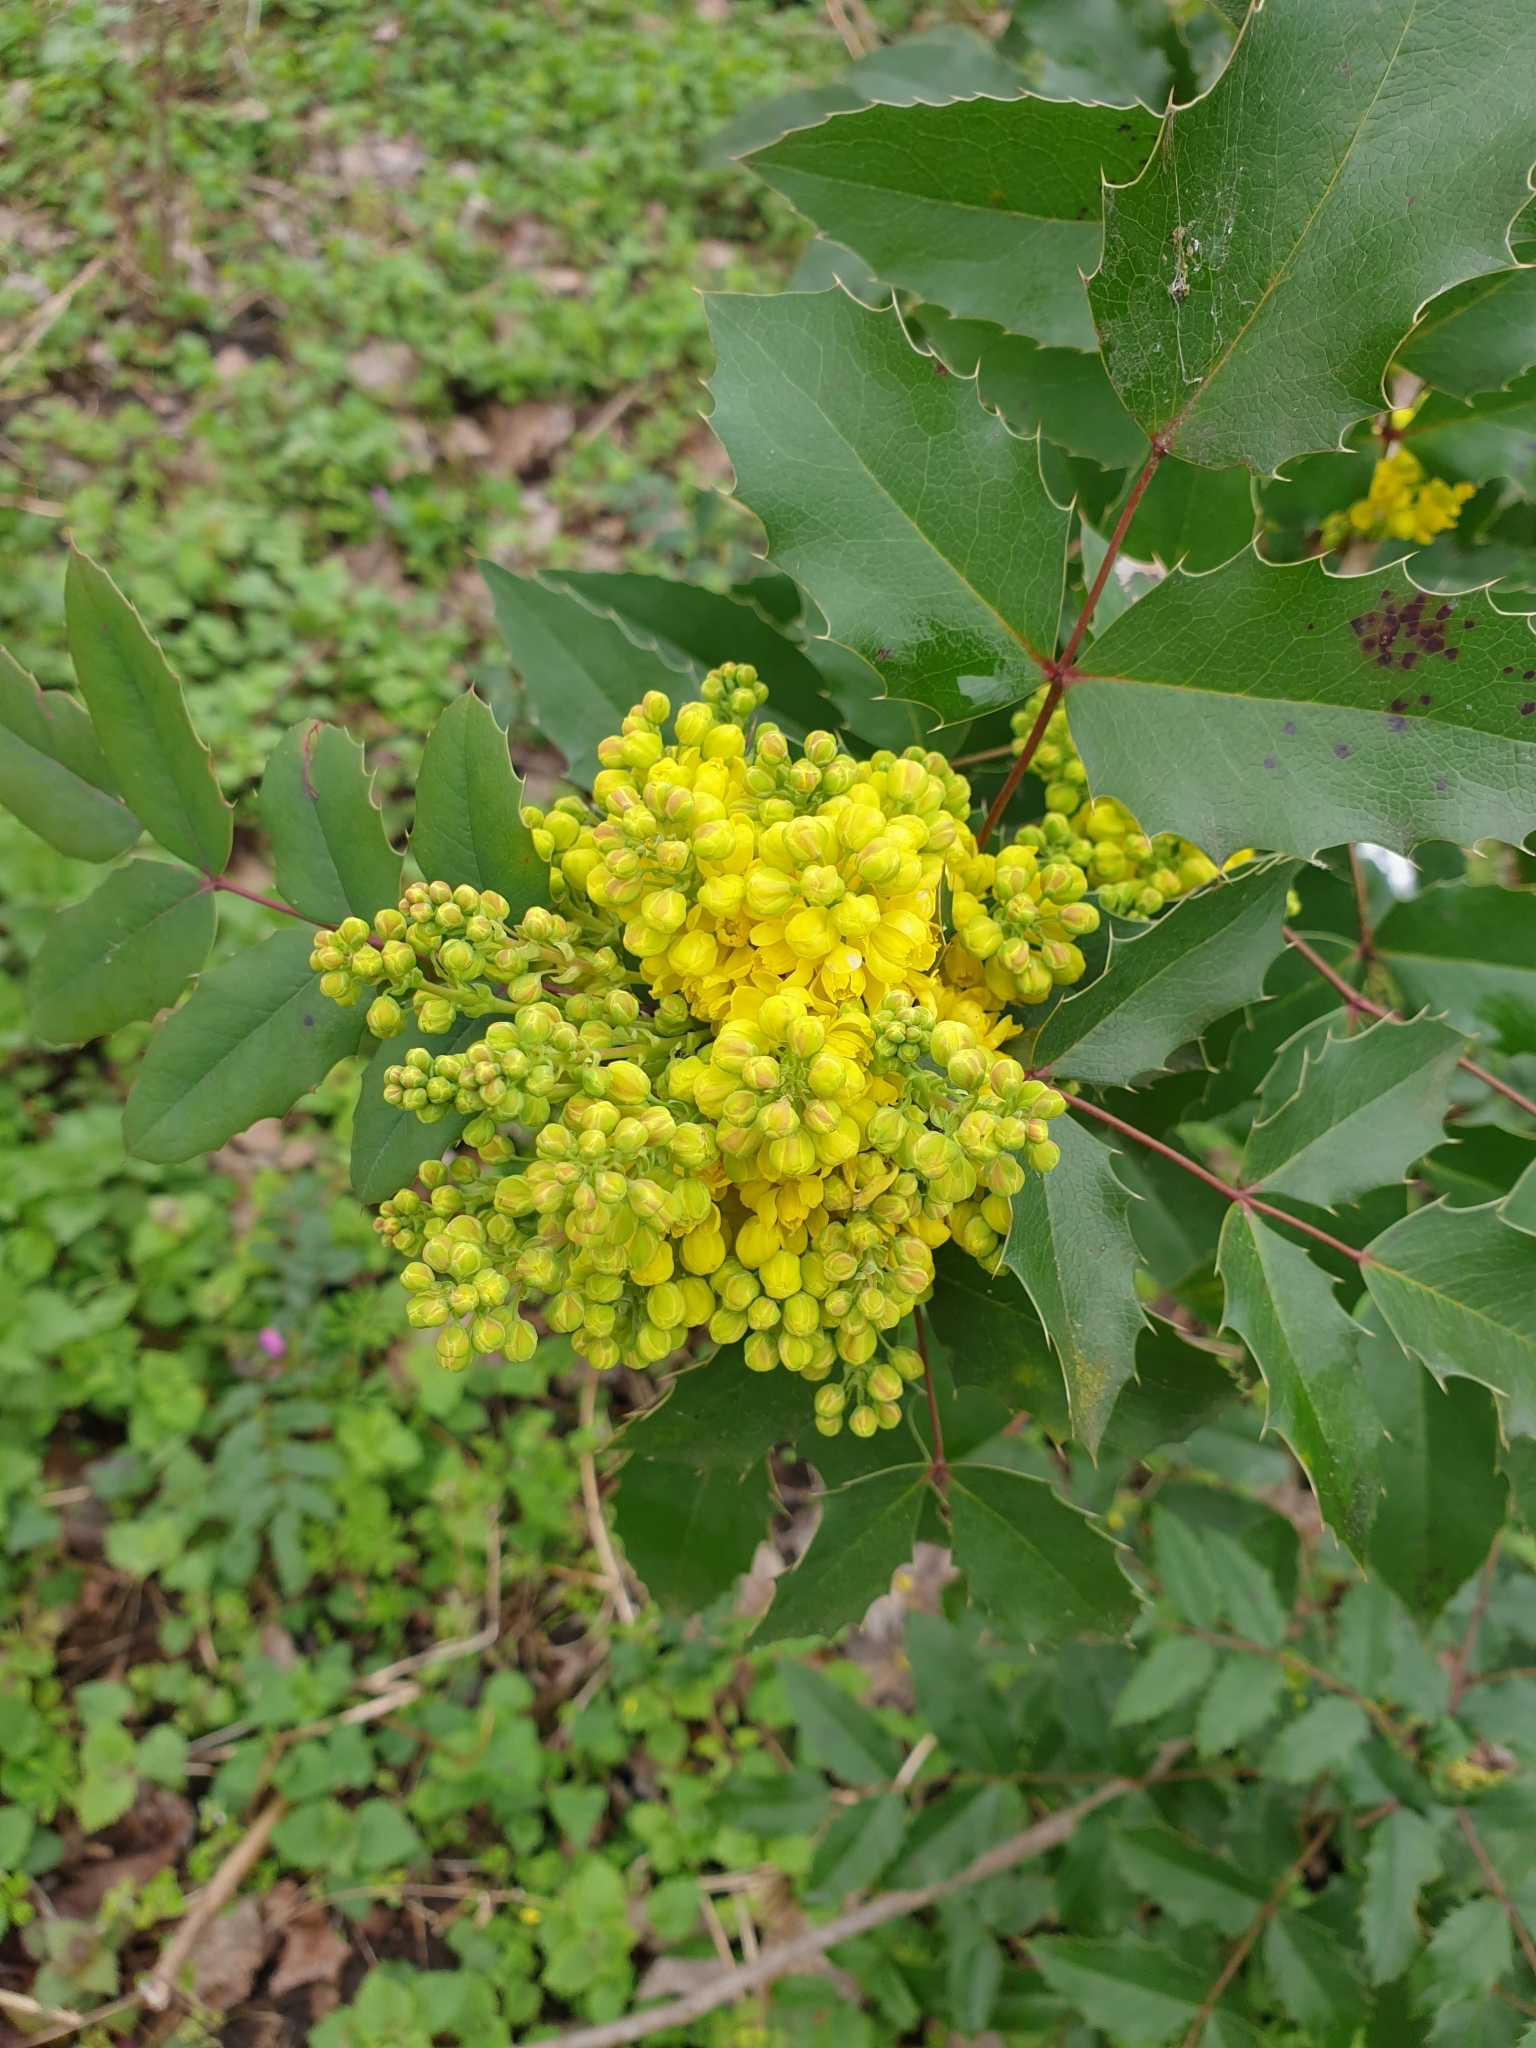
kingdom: Plantae
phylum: Tracheophyta
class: Magnoliopsida
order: Ranunculales
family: Berberidaceae
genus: Mahonia
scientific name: Mahonia aquifolium
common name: Oregon-grape
